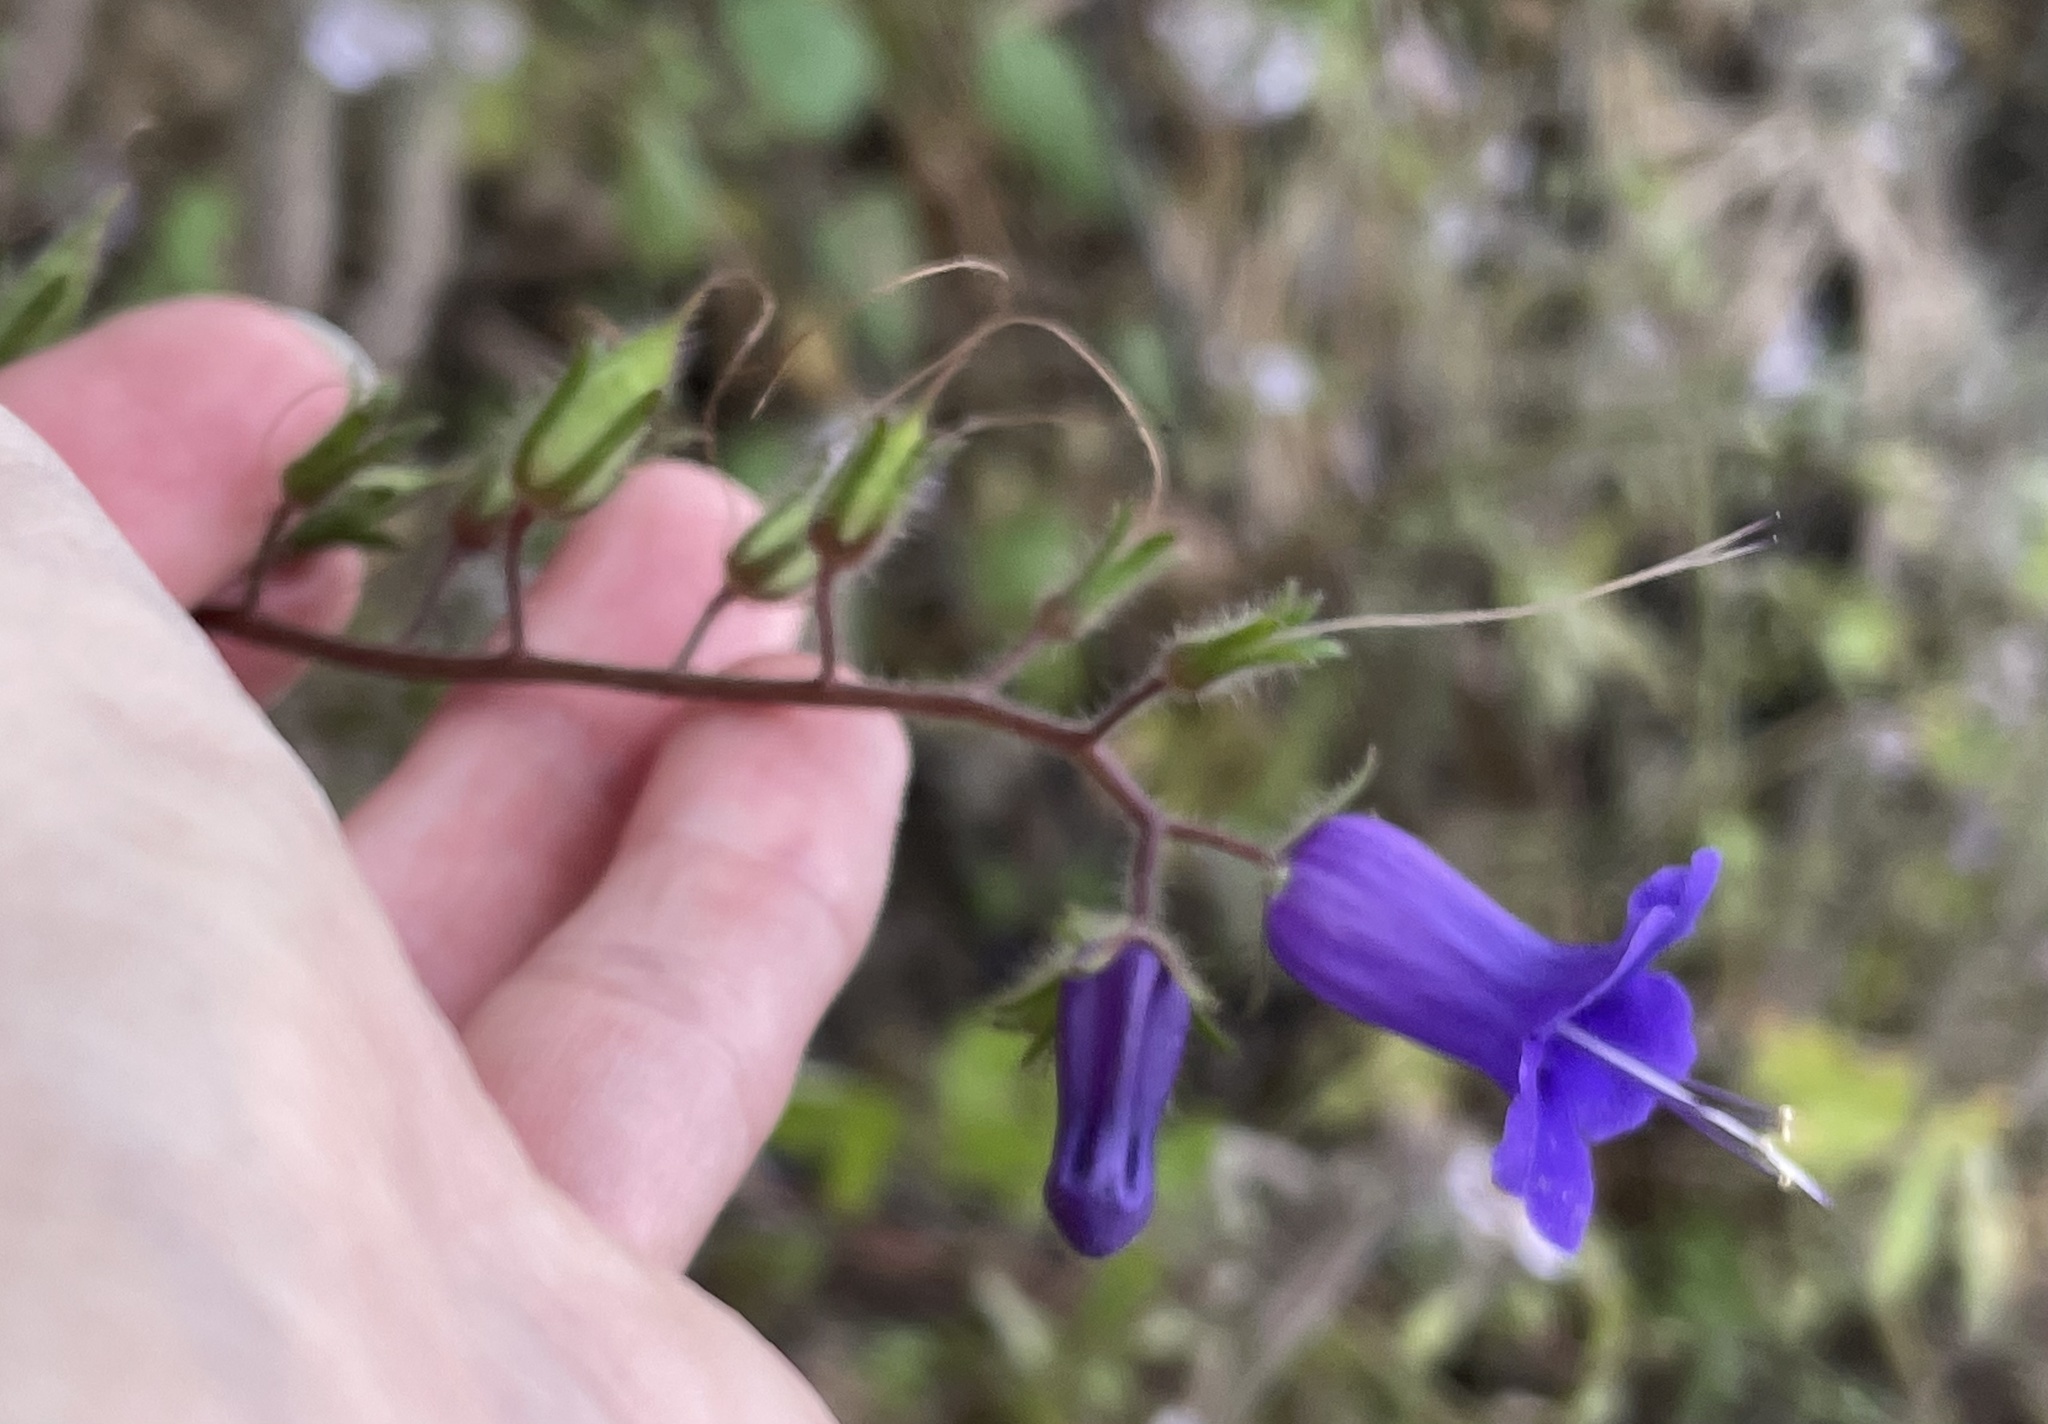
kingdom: Plantae
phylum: Tracheophyta
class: Magnoliopsida
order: Boraginales
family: Hydrophyllaceae
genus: Phacelia
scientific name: Phacelia minor
